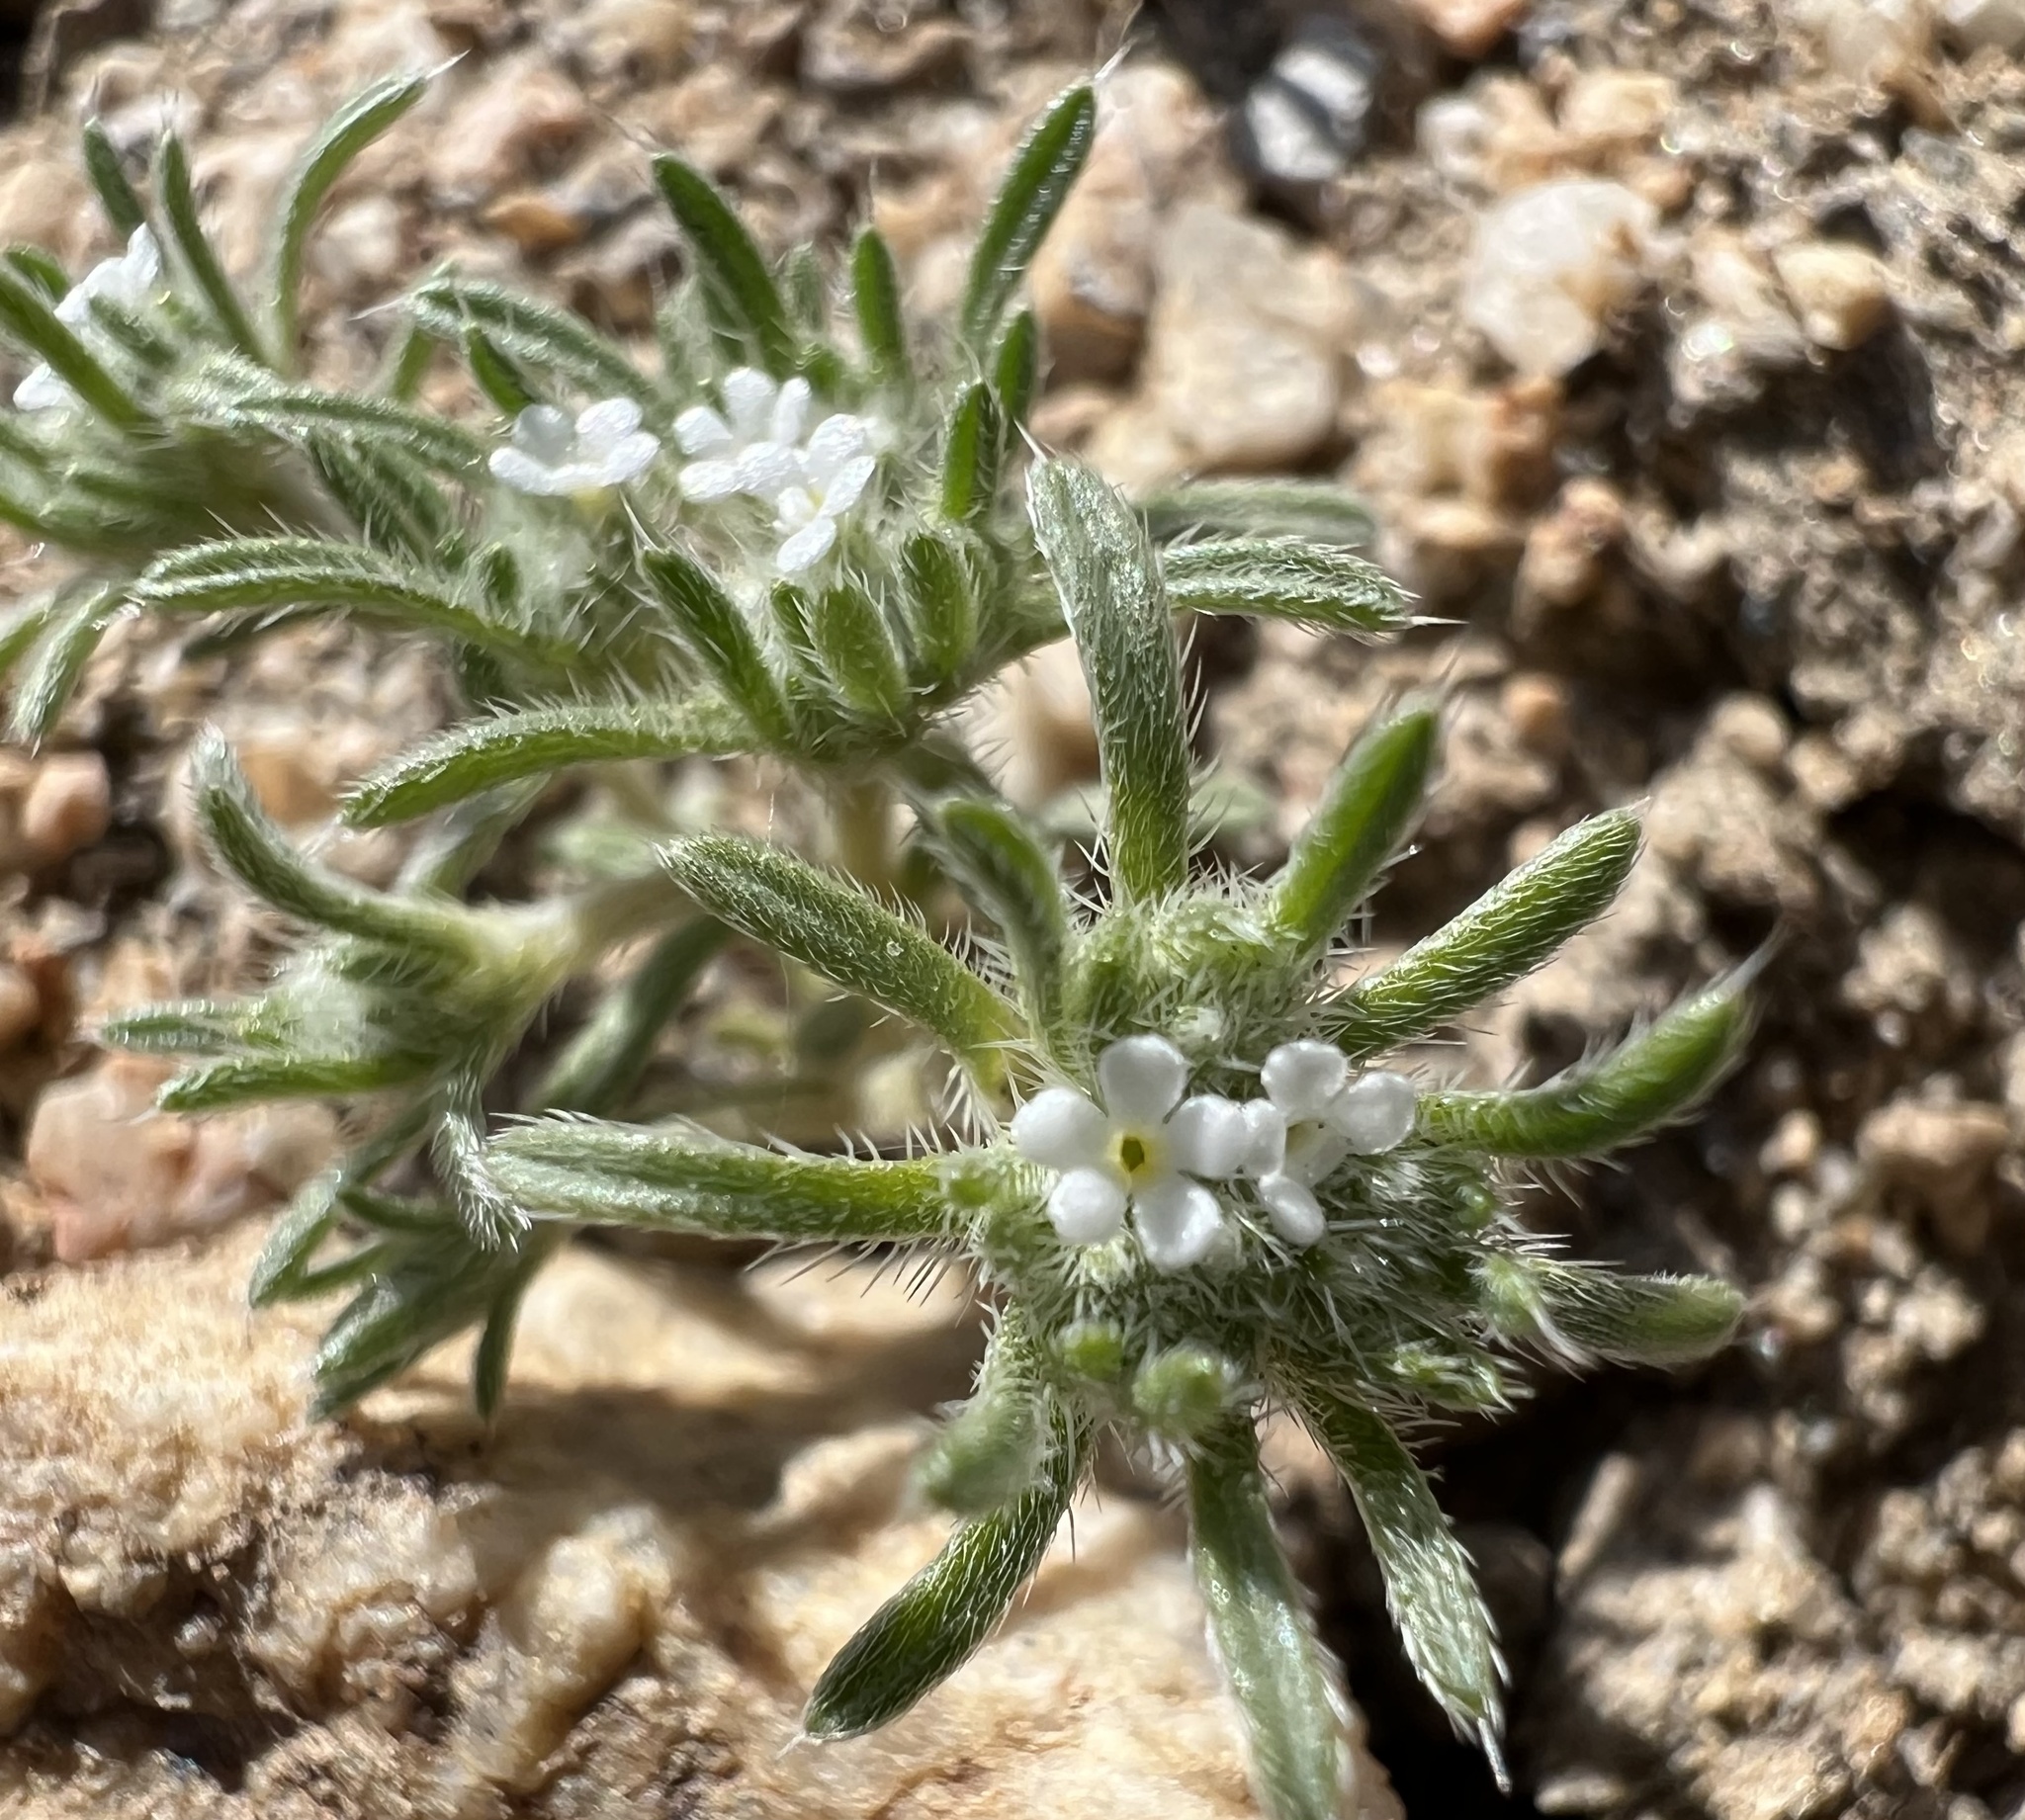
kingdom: Plantae
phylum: Tracheophyta
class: Magnoliopsida
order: Boraginales
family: Boraginaceae
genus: Greeneocharis
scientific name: Greeneocharis circumscissa
